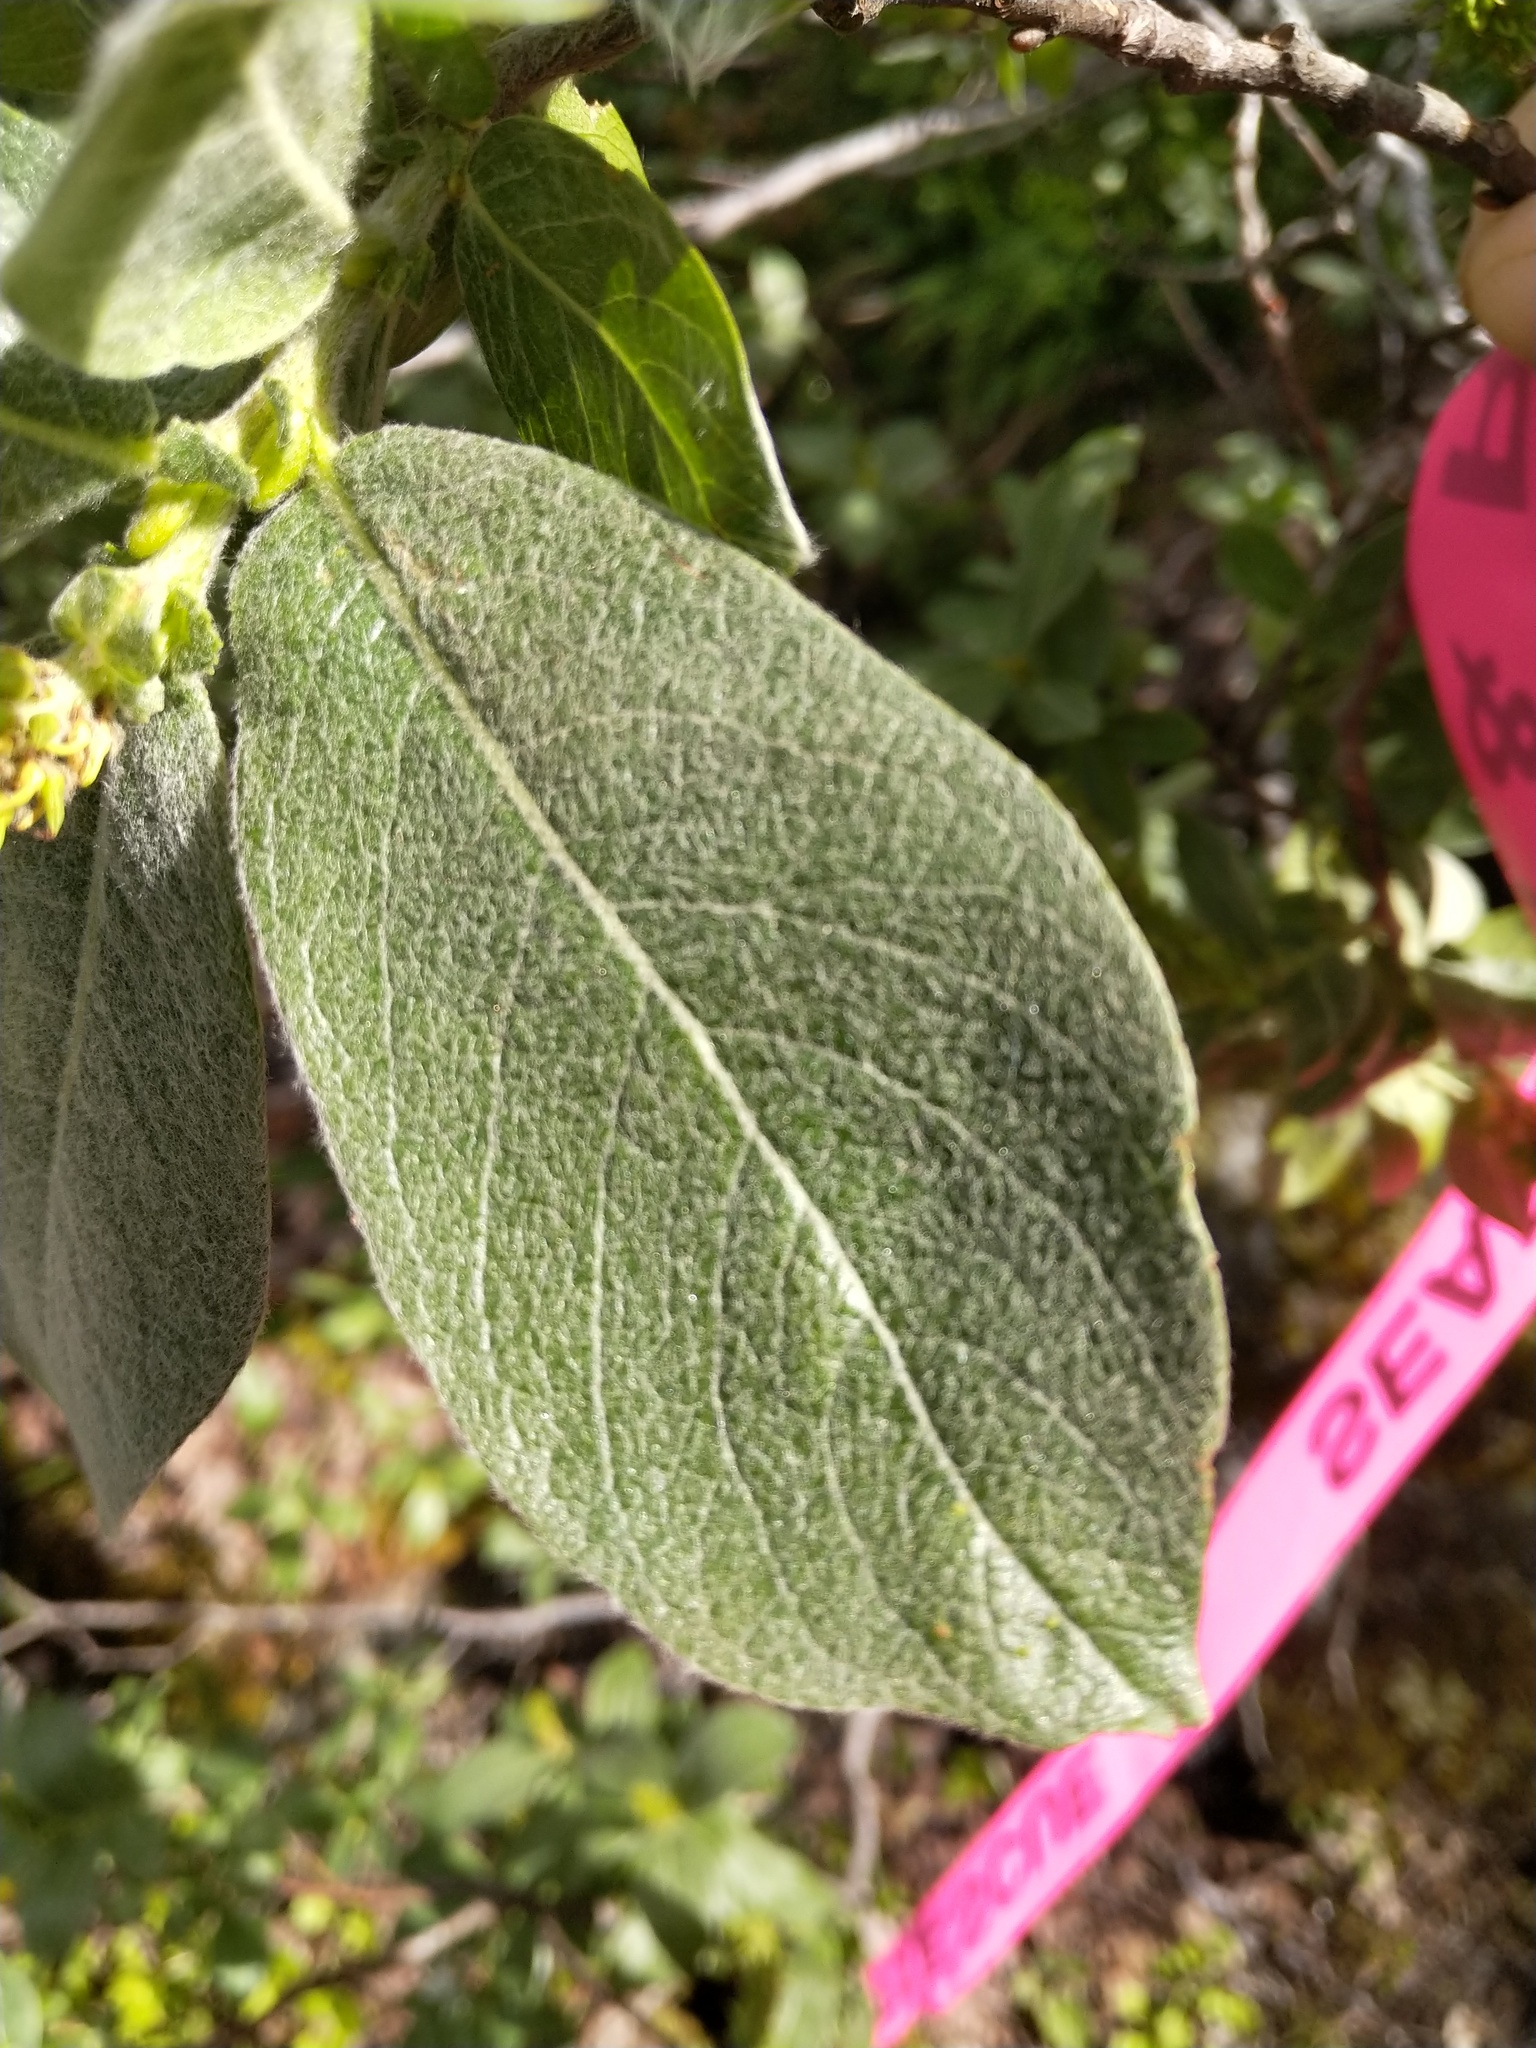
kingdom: Plantae
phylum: Tracheophyta
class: Magnoliopsida
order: Malpighiales
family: Salicaceae
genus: Salix
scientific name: Salix commutata
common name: Under-green willow
